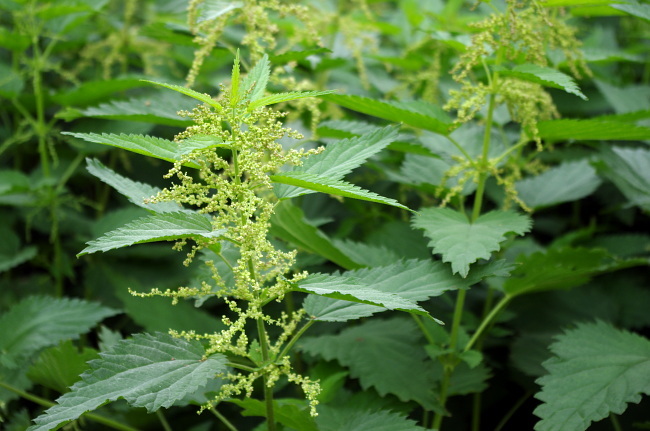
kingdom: Plantae
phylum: Tracheophyta
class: Magnoliopsida
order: Rosales
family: Urticaceae
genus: Urtica
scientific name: Urtica dioica
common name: Common nettle
